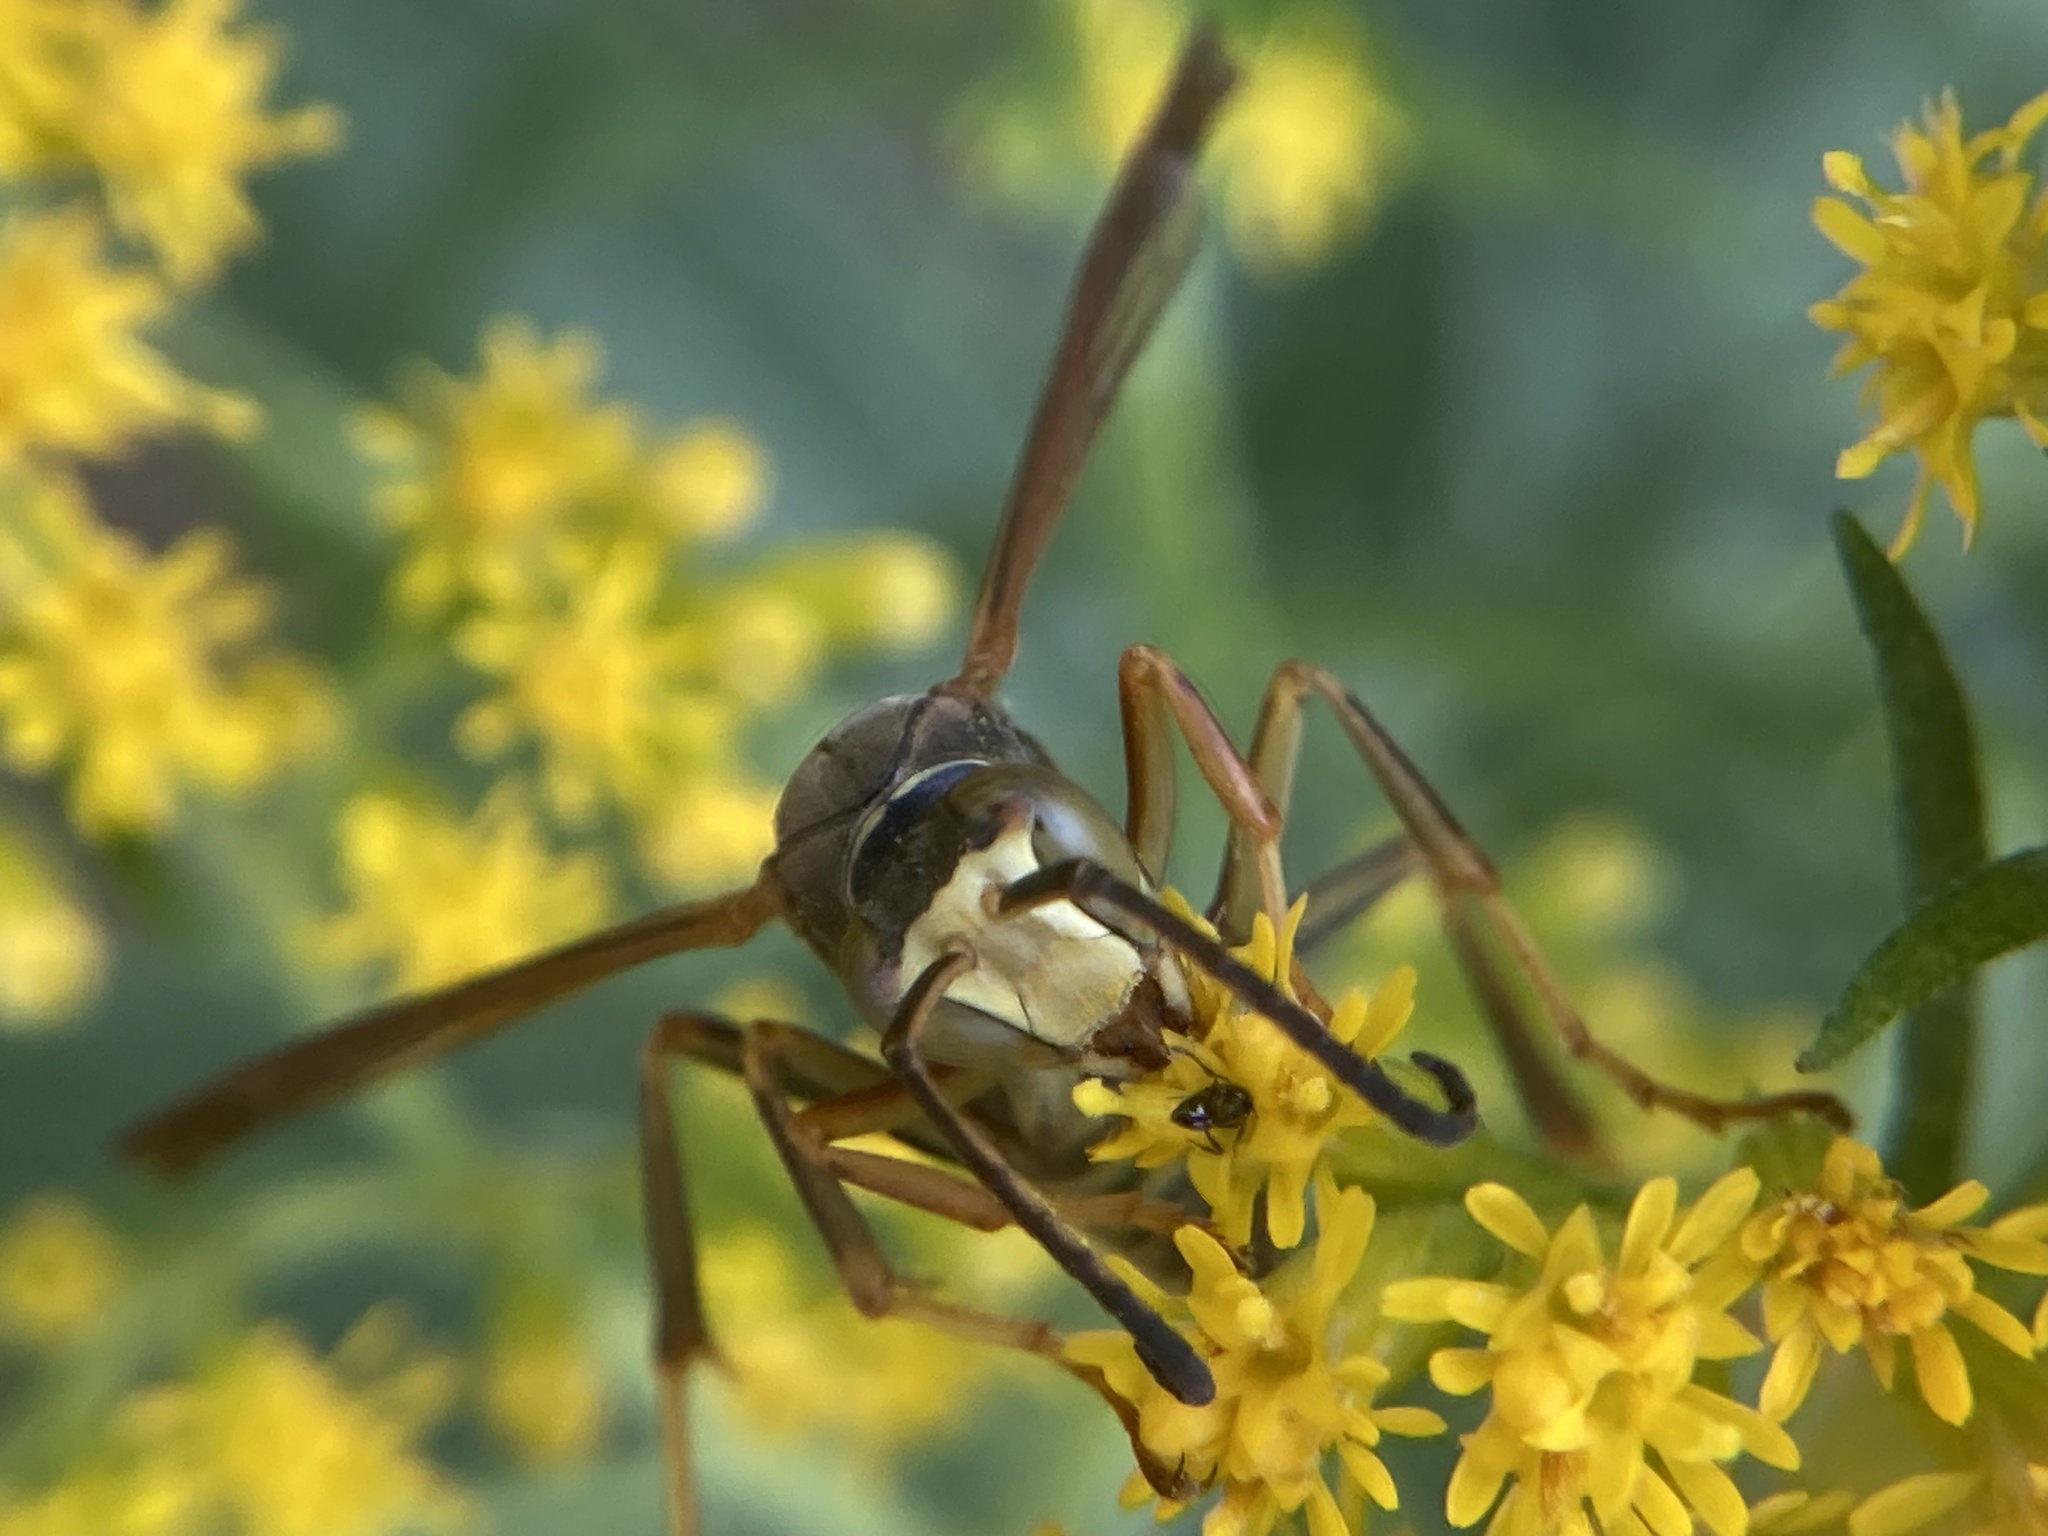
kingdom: Animalia
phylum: Arthropoda
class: Insecta
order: Hymenoptera
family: Eumenidae
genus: Polistes
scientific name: Polistes fuscatus
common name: Dark paper wasp
